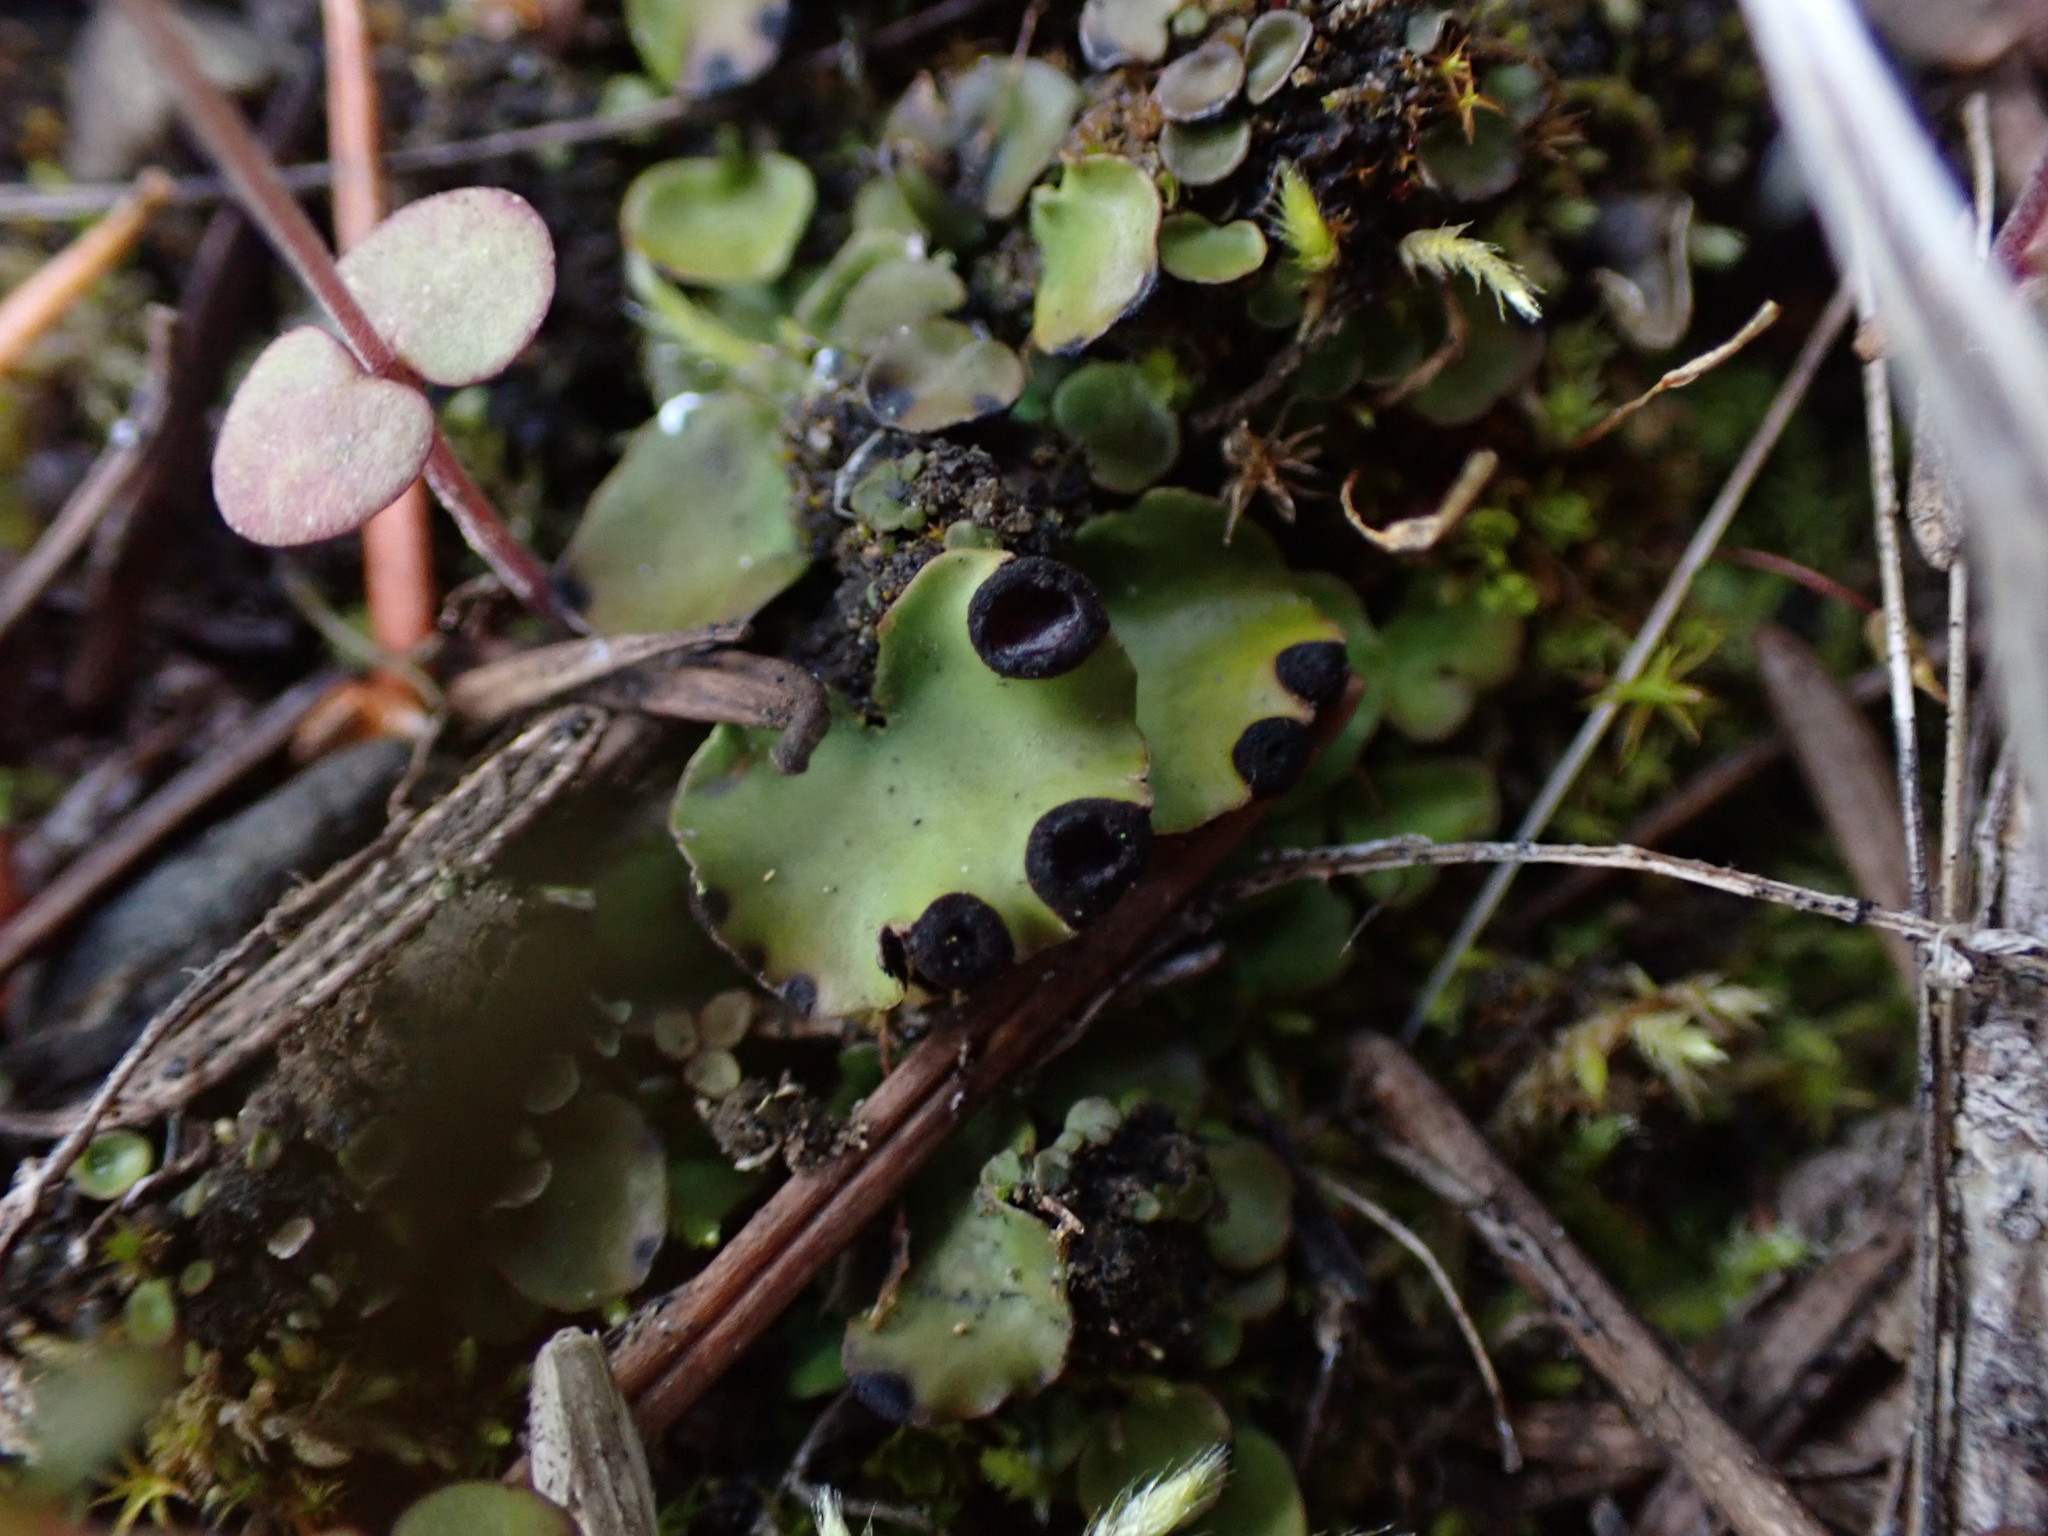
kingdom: Fungi
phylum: Ascomycota
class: Lecanoromycetes
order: Peltigerales
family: Peltigeraceae
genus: Peltigera
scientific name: Peltigera venosa
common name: Pixie gowns lichen
